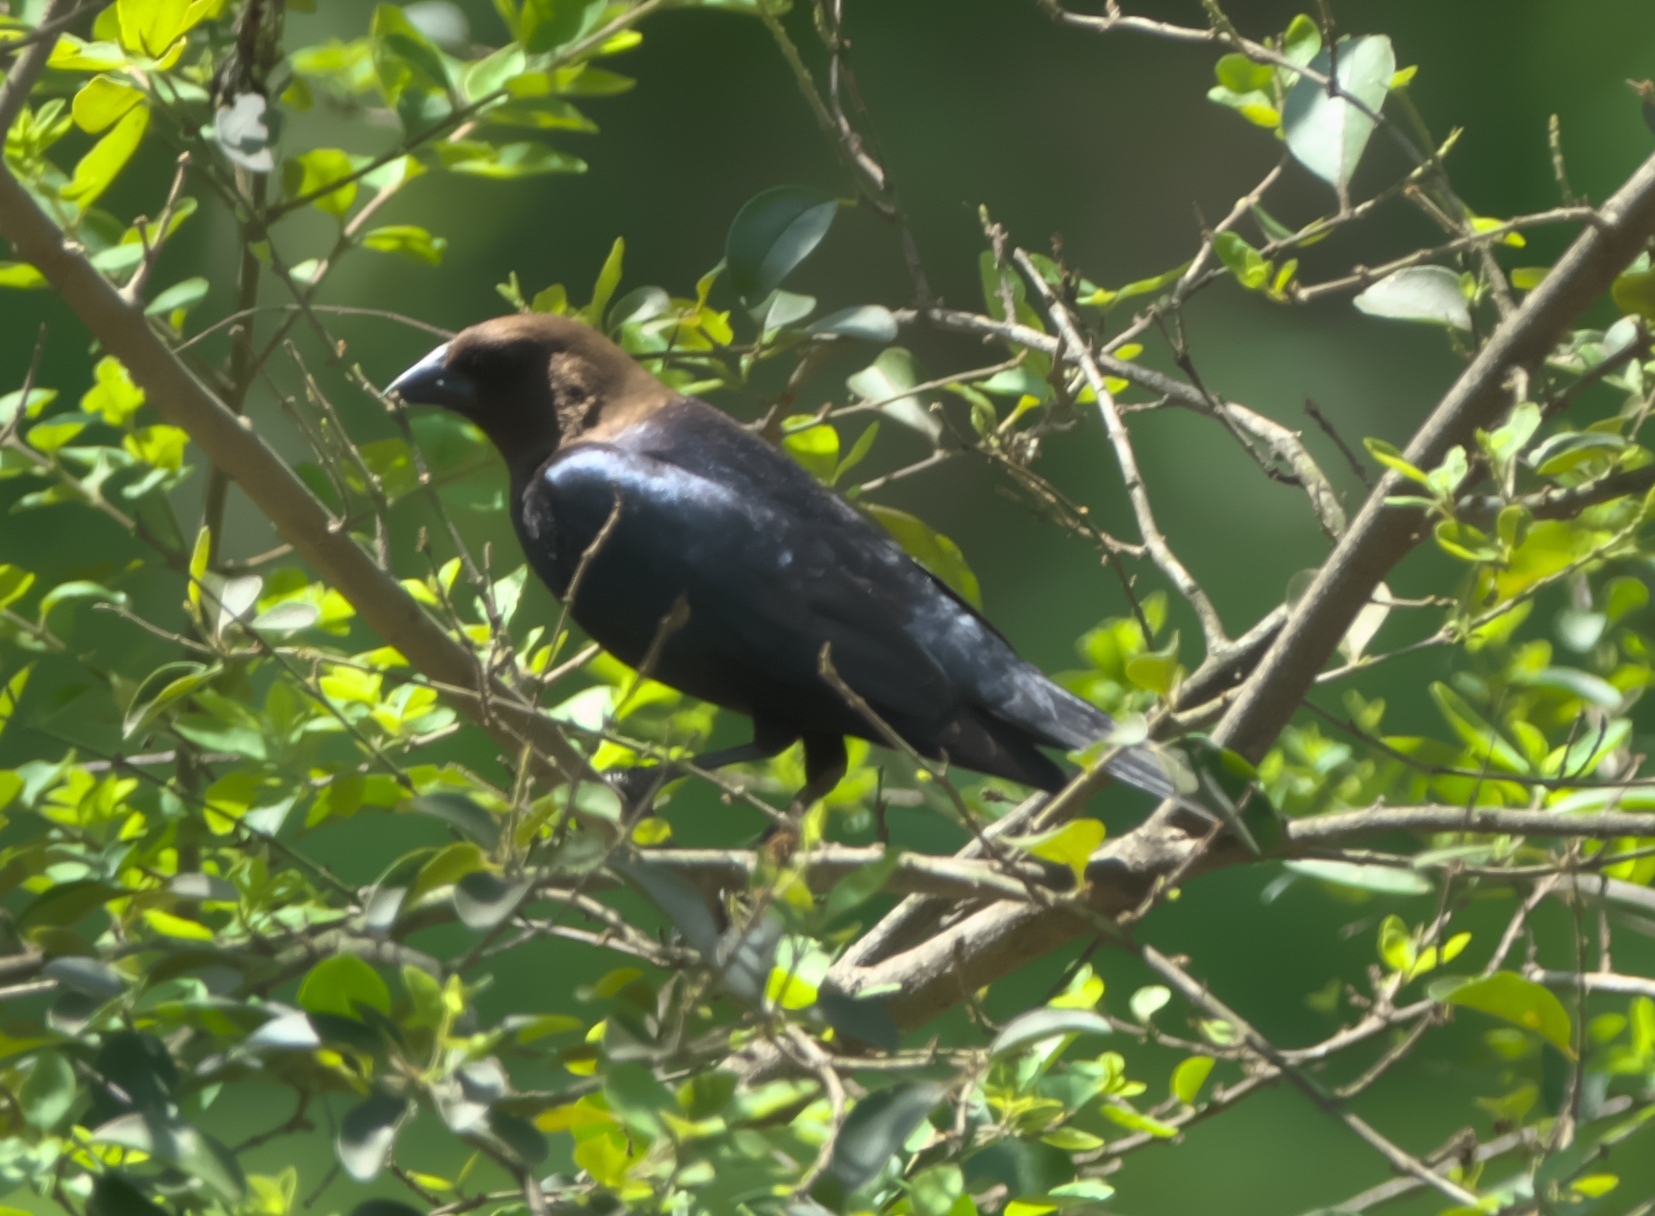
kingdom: Animalia
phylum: Chordata
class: Aves
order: Passeriformes
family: Icteridae
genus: Molothrus
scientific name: Molothrus ater
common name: Brown-headed cowbird
